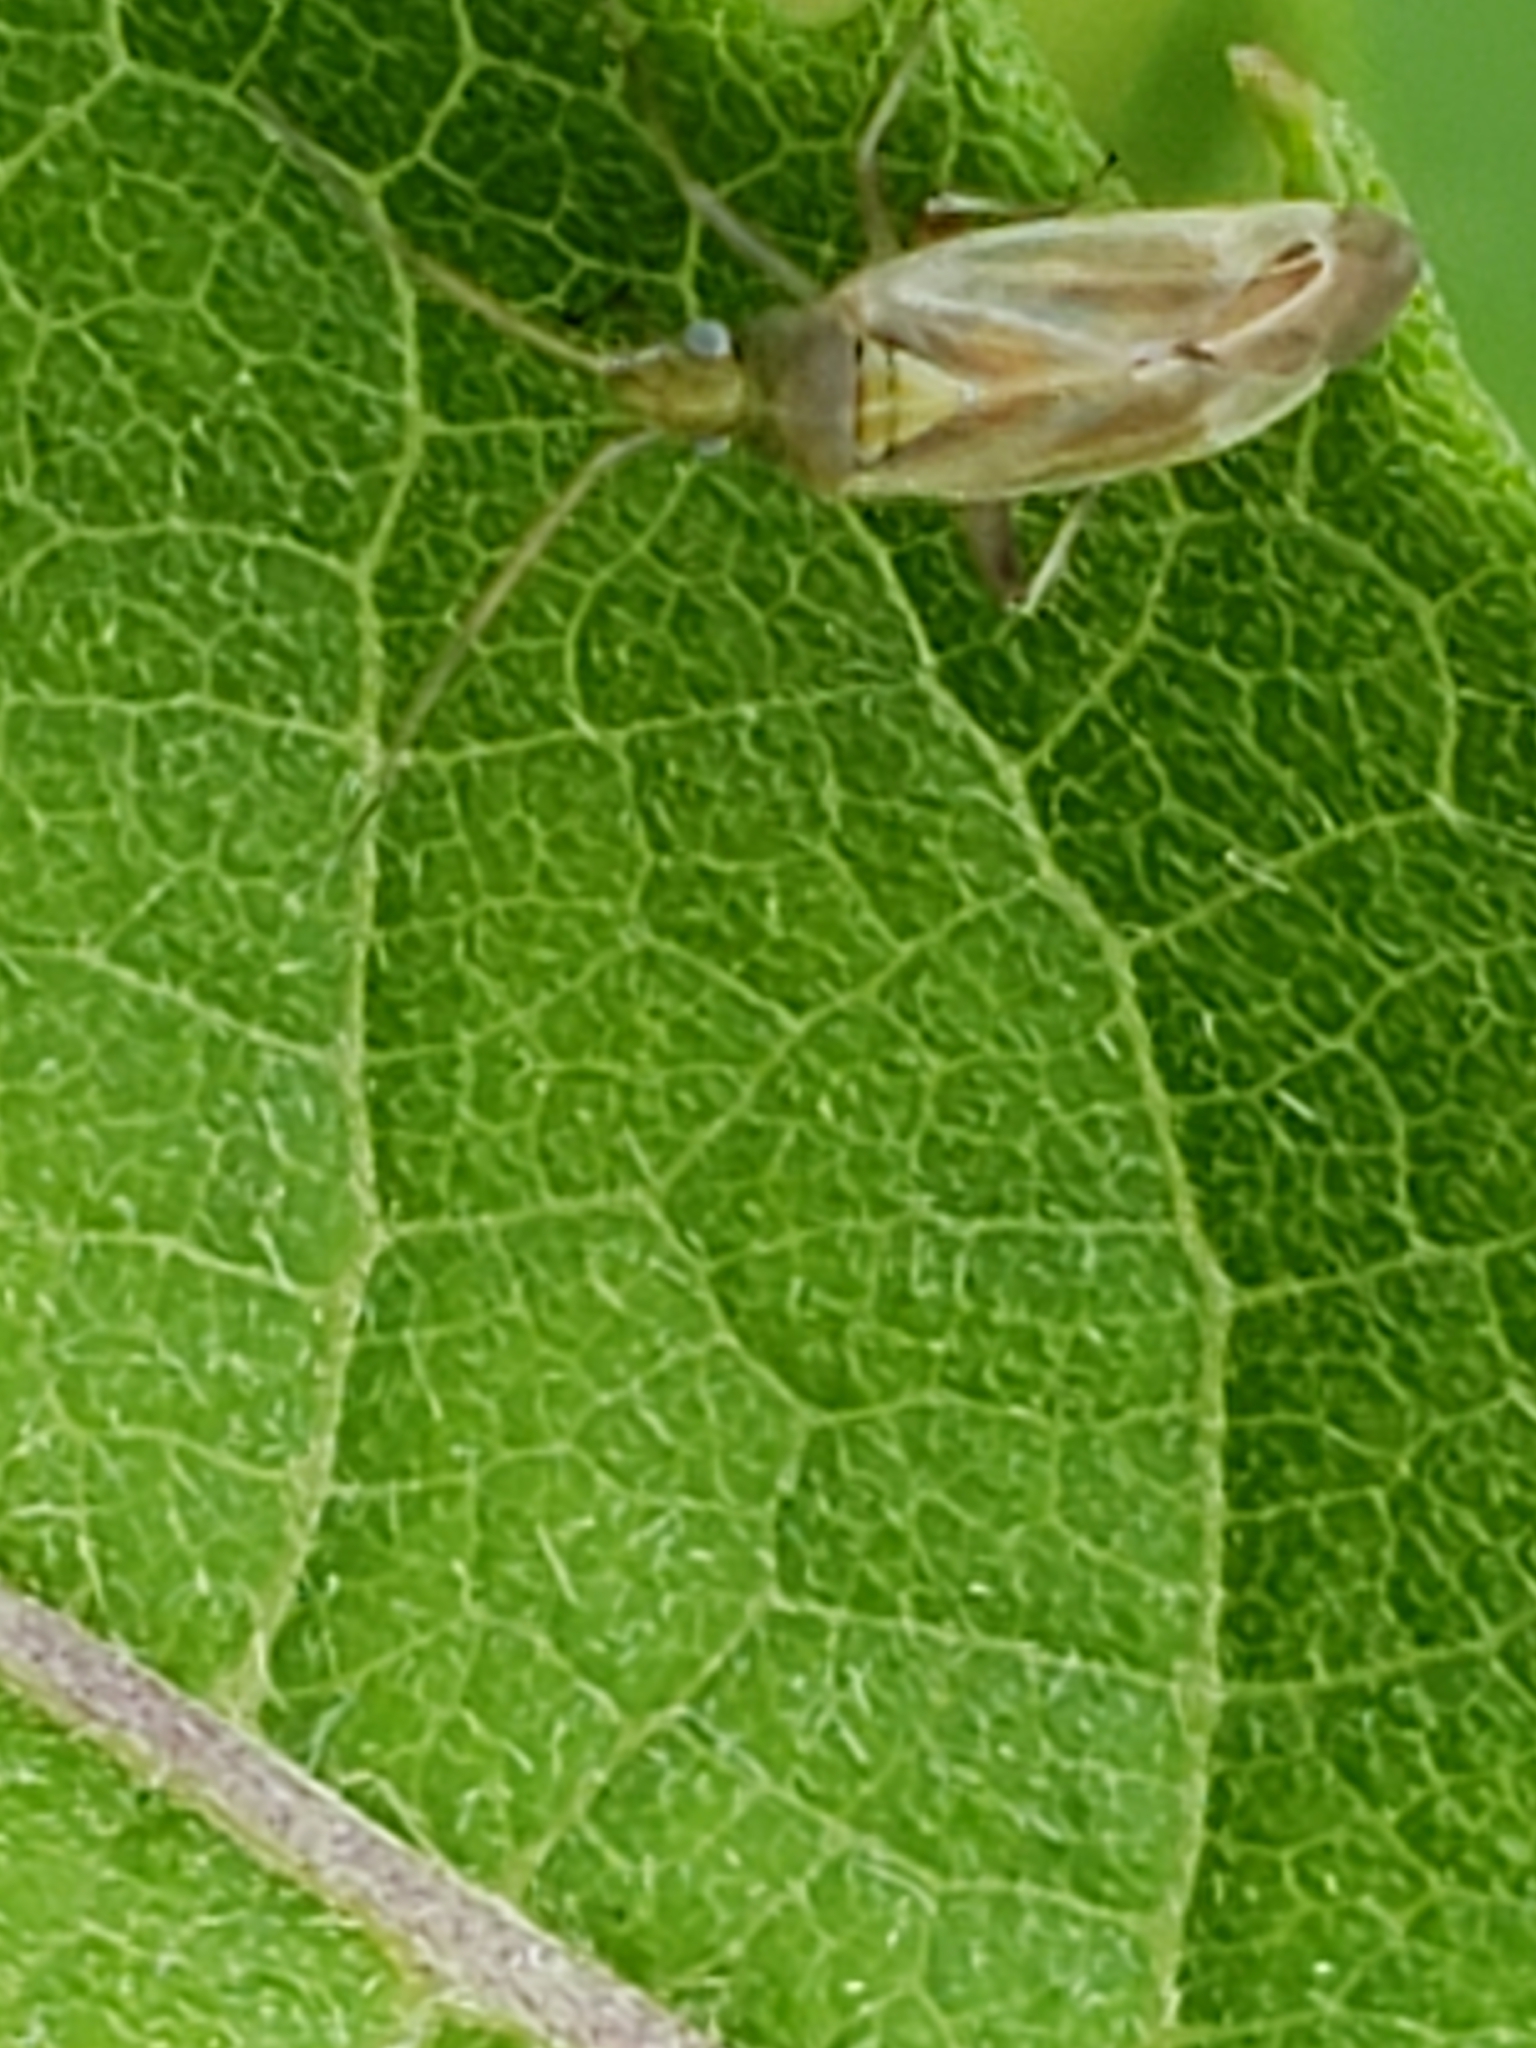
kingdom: Animalia
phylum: Arthropoda
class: Insecta
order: Hemiptera
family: Miridae
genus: Amblytylus
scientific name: Amblytylus nasutus
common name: Plant bug
